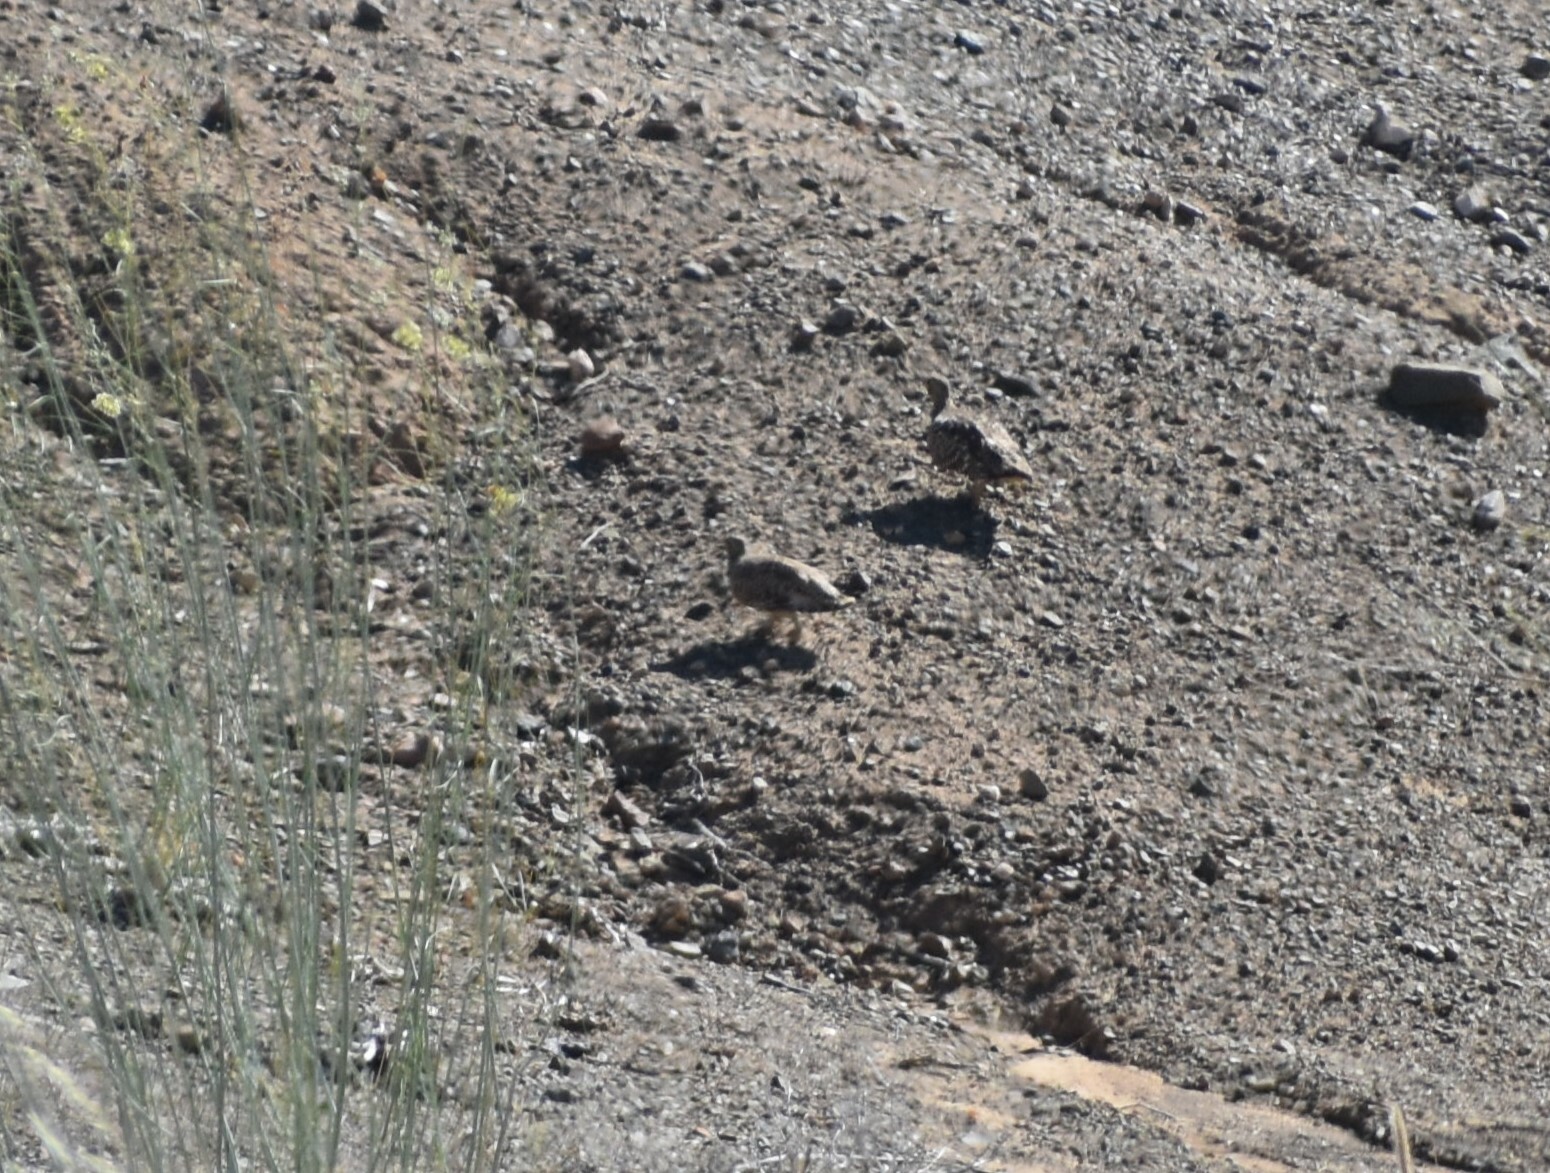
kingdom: Animalia
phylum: Chordata
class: Aves
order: Pteroclidiformes
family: Pteroclididae
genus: Pterocles
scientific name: Pterocles namaqua
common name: Namaqua sandgrouse
